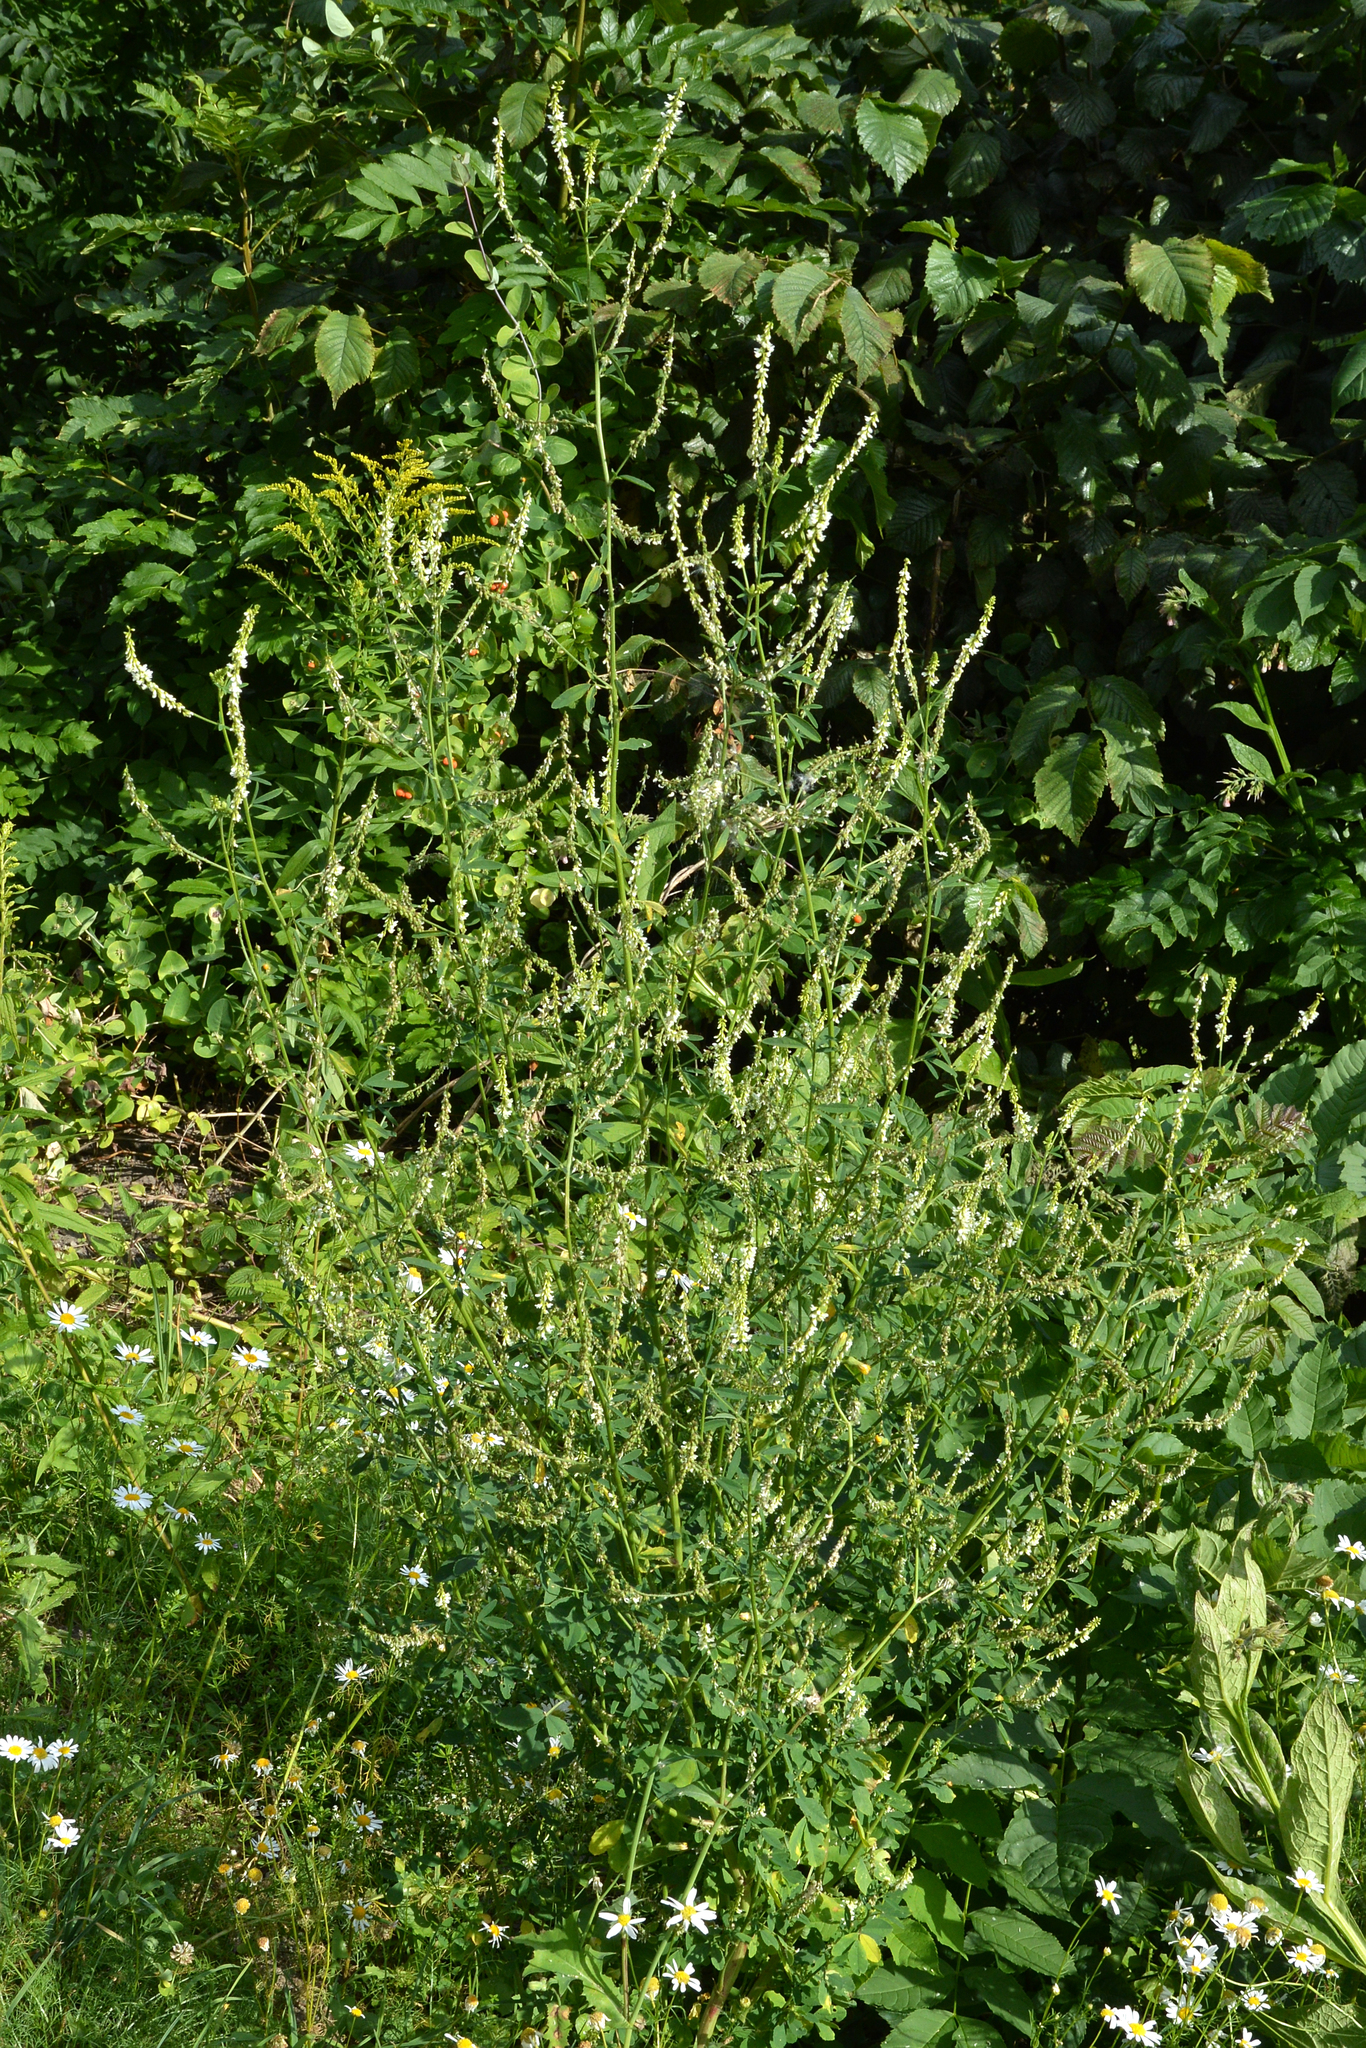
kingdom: Plantae
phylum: Tracheophyta
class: Magnoliopsida
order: Fabales
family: Fabaceae
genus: Melilotus
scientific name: Melilotus albus
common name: White melilot
